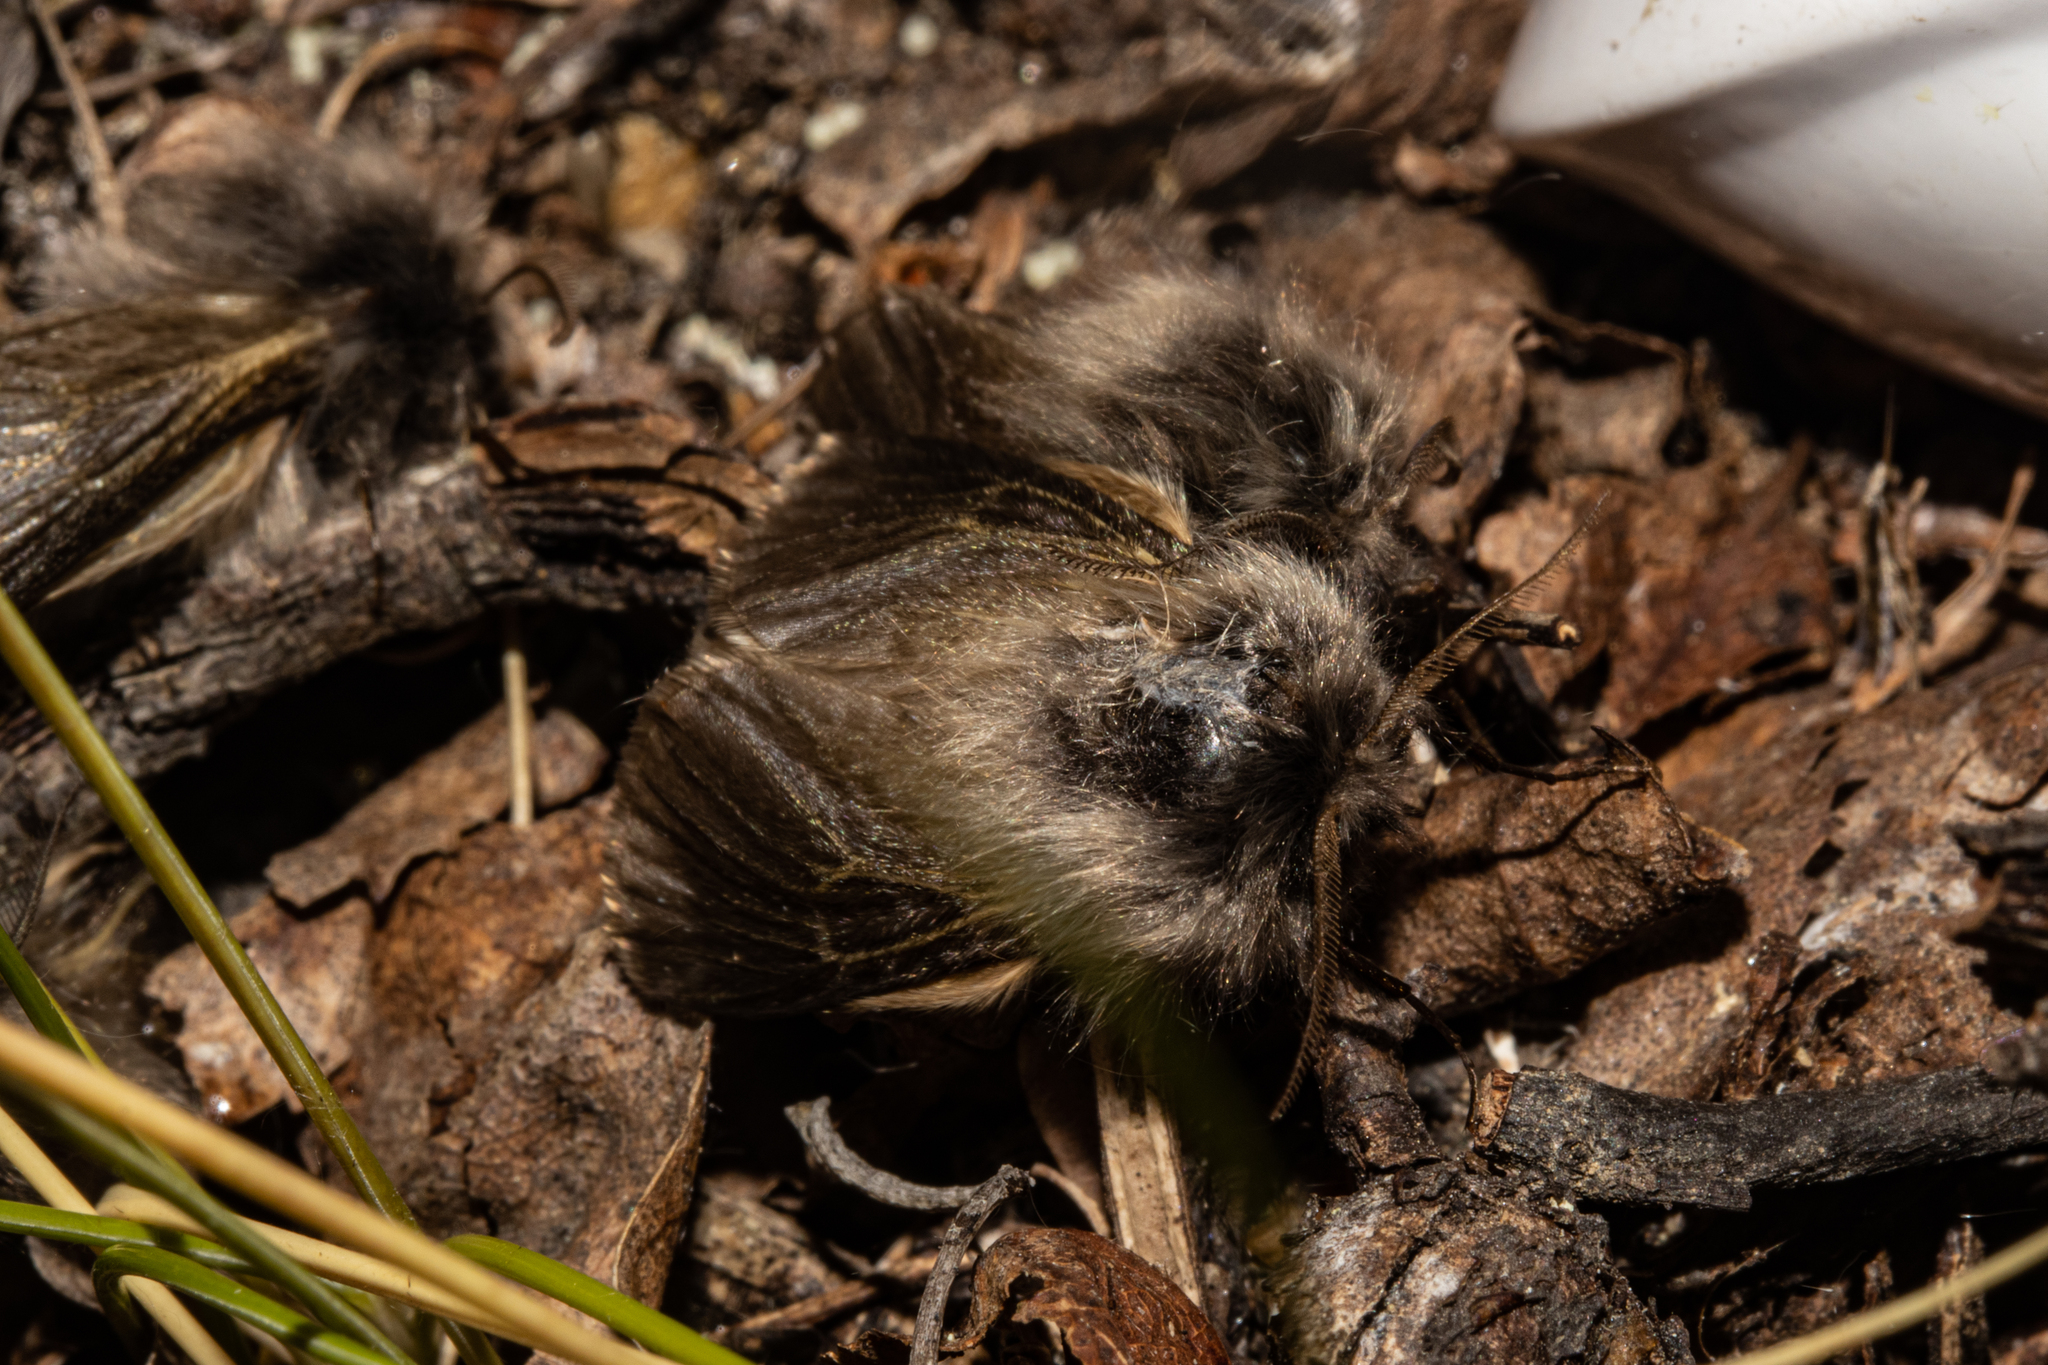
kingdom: Animalia
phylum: Arthropoda
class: Insecta
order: Lepidoptera
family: Psychidae
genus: Orophora
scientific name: Orophora unicolor
